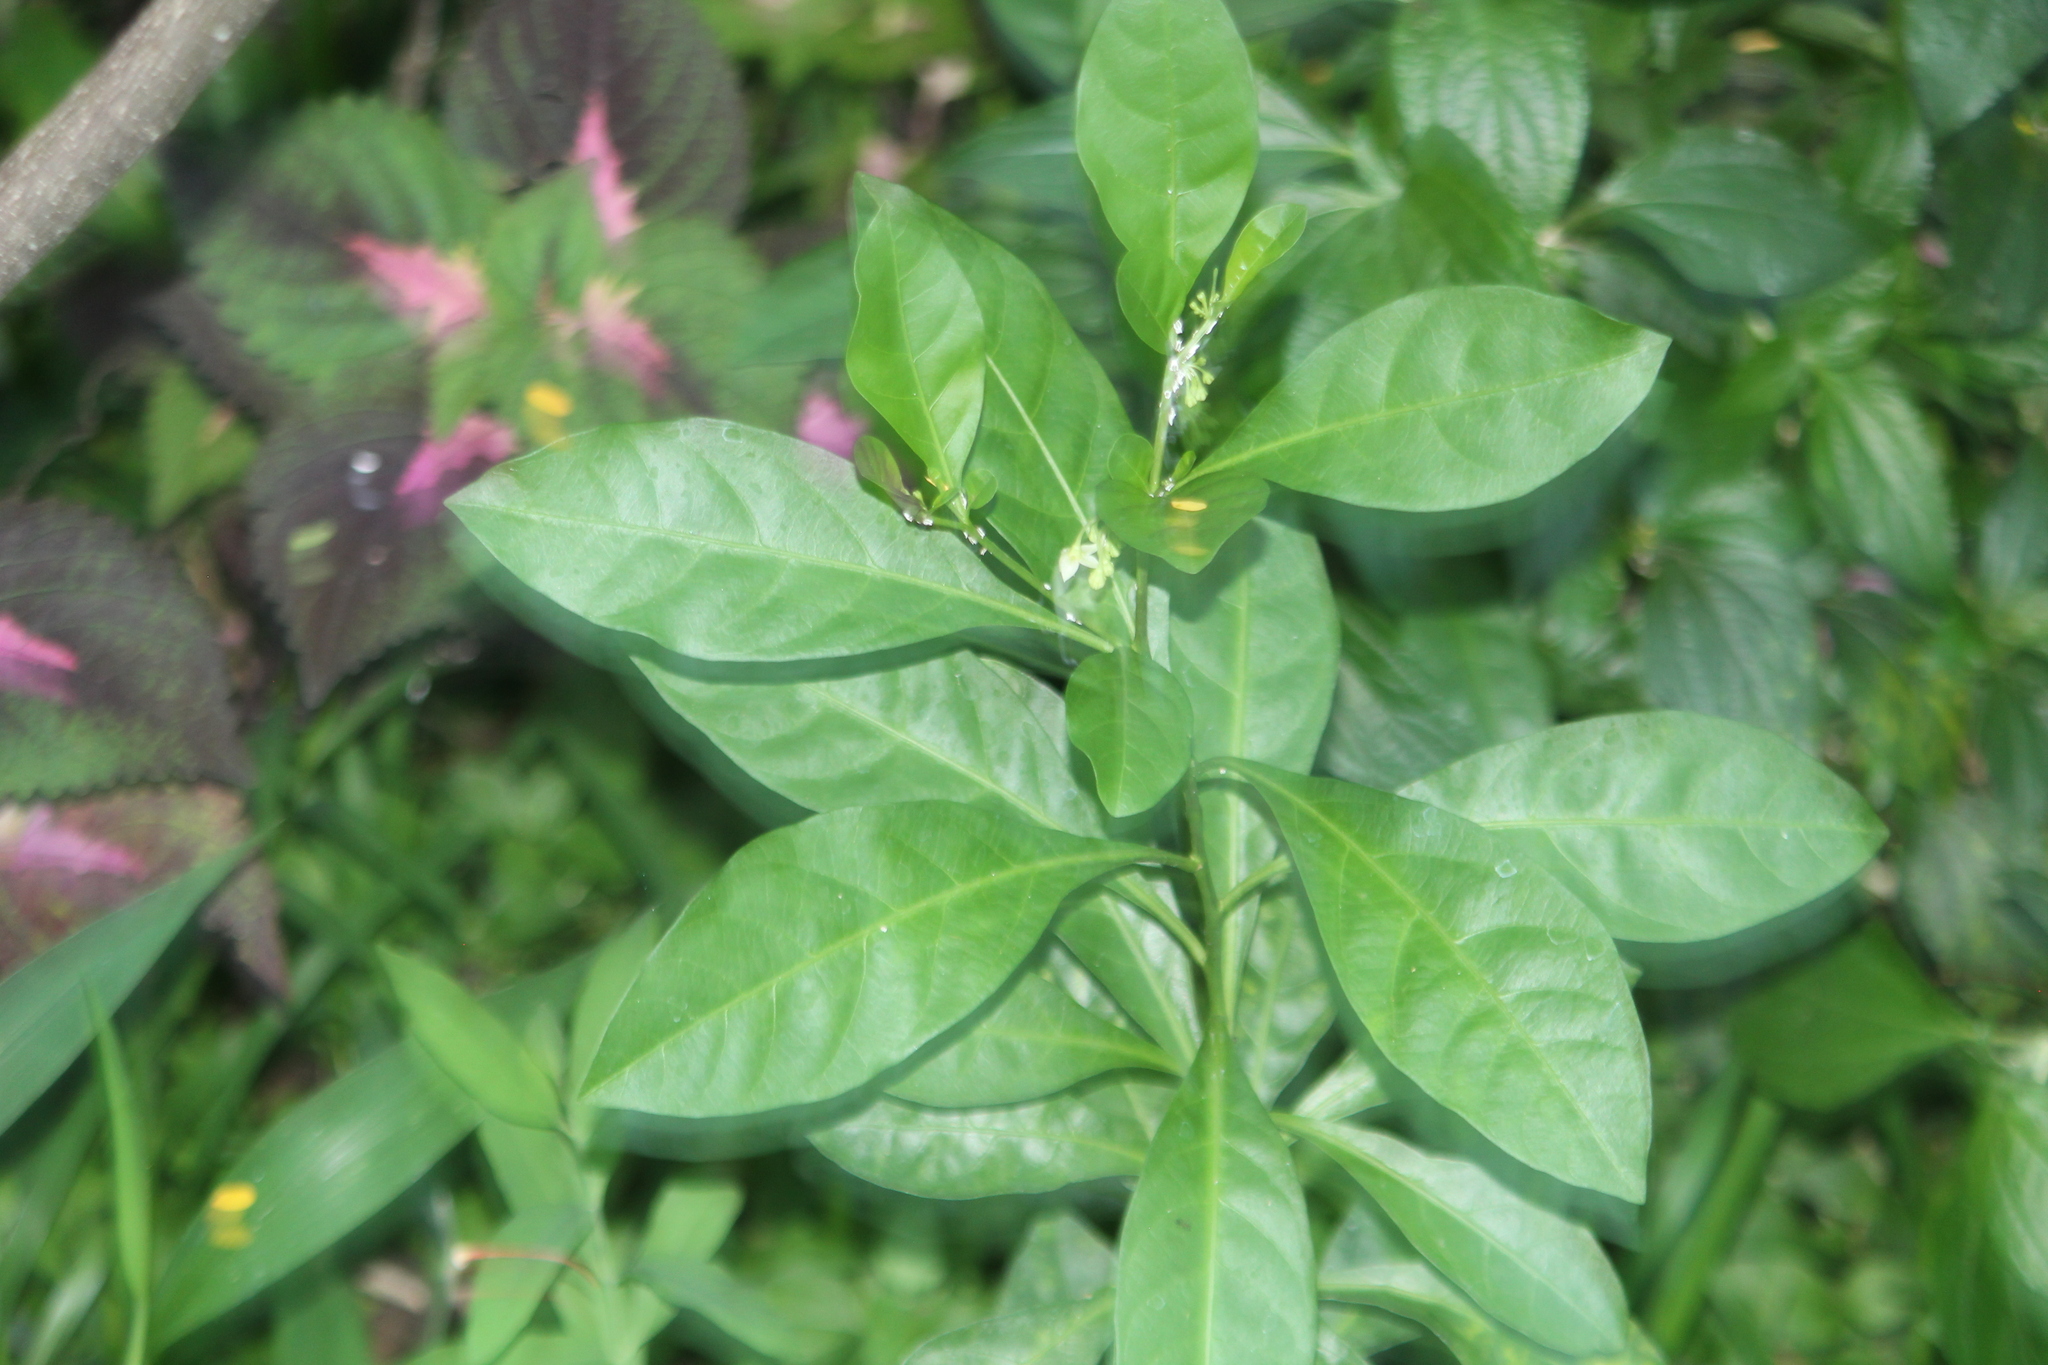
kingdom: Plantae
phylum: Tracheophyta
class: Magnoliopsida
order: Solanales
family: Solanaceae
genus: Solanum
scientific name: Solanum diphyllum
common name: Twoleaf nightshade
